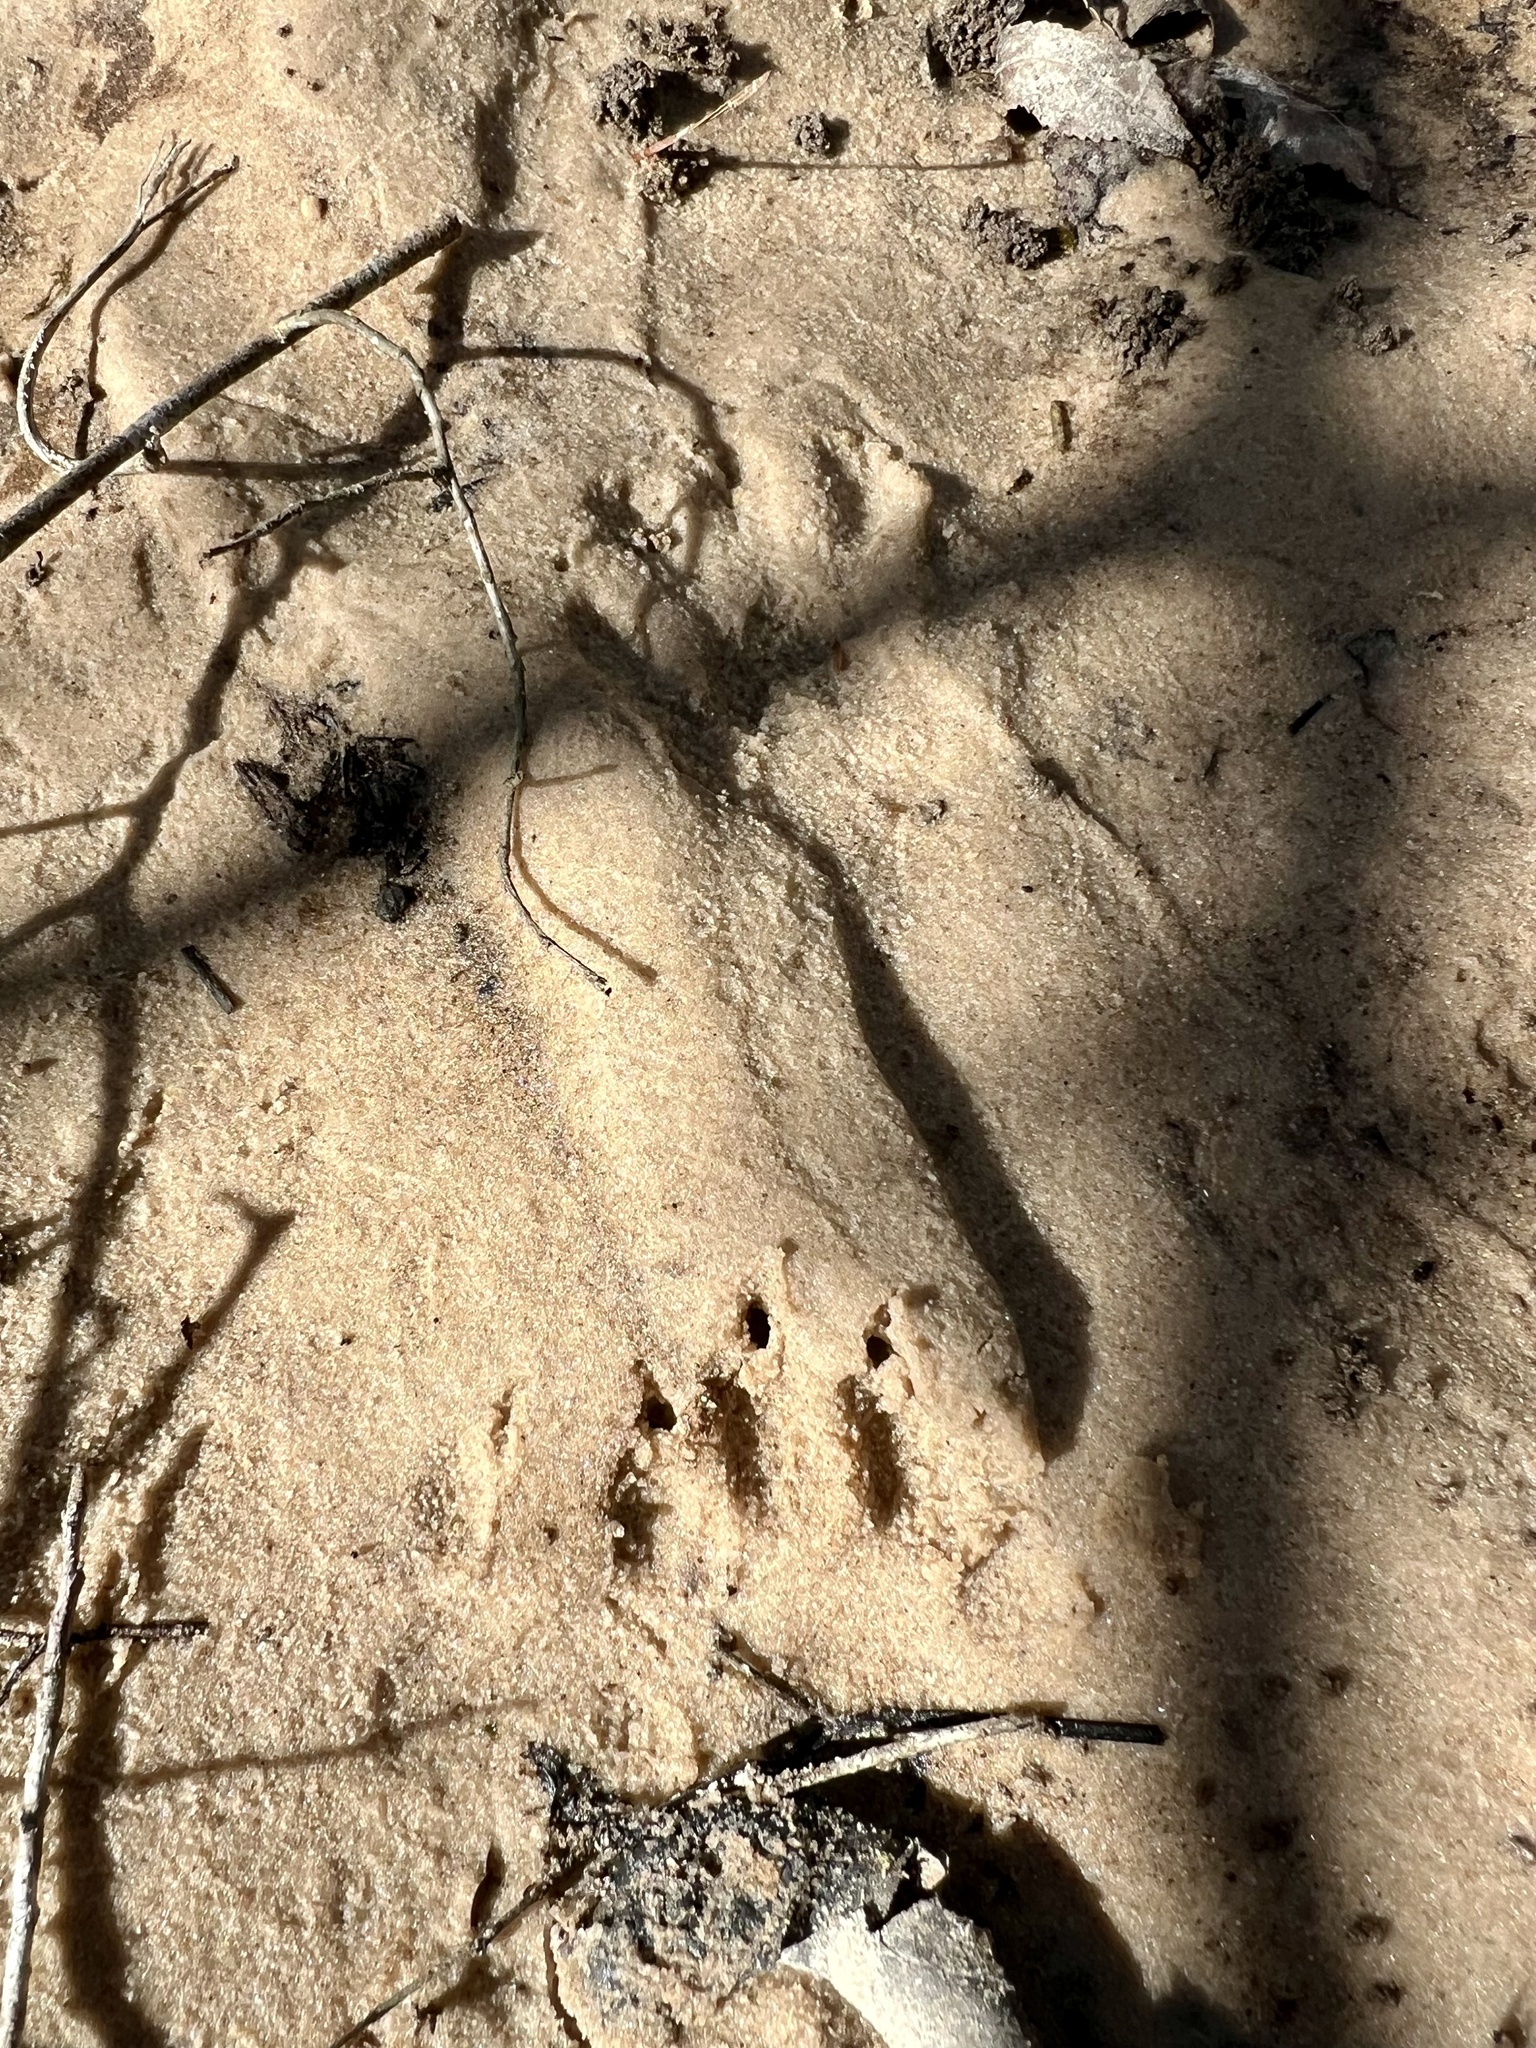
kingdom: Animalia
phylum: Chordata
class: Mammalia
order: Carnivora
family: Procyonidae
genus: Procyon
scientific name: Procyon lotor
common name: Raccoon
